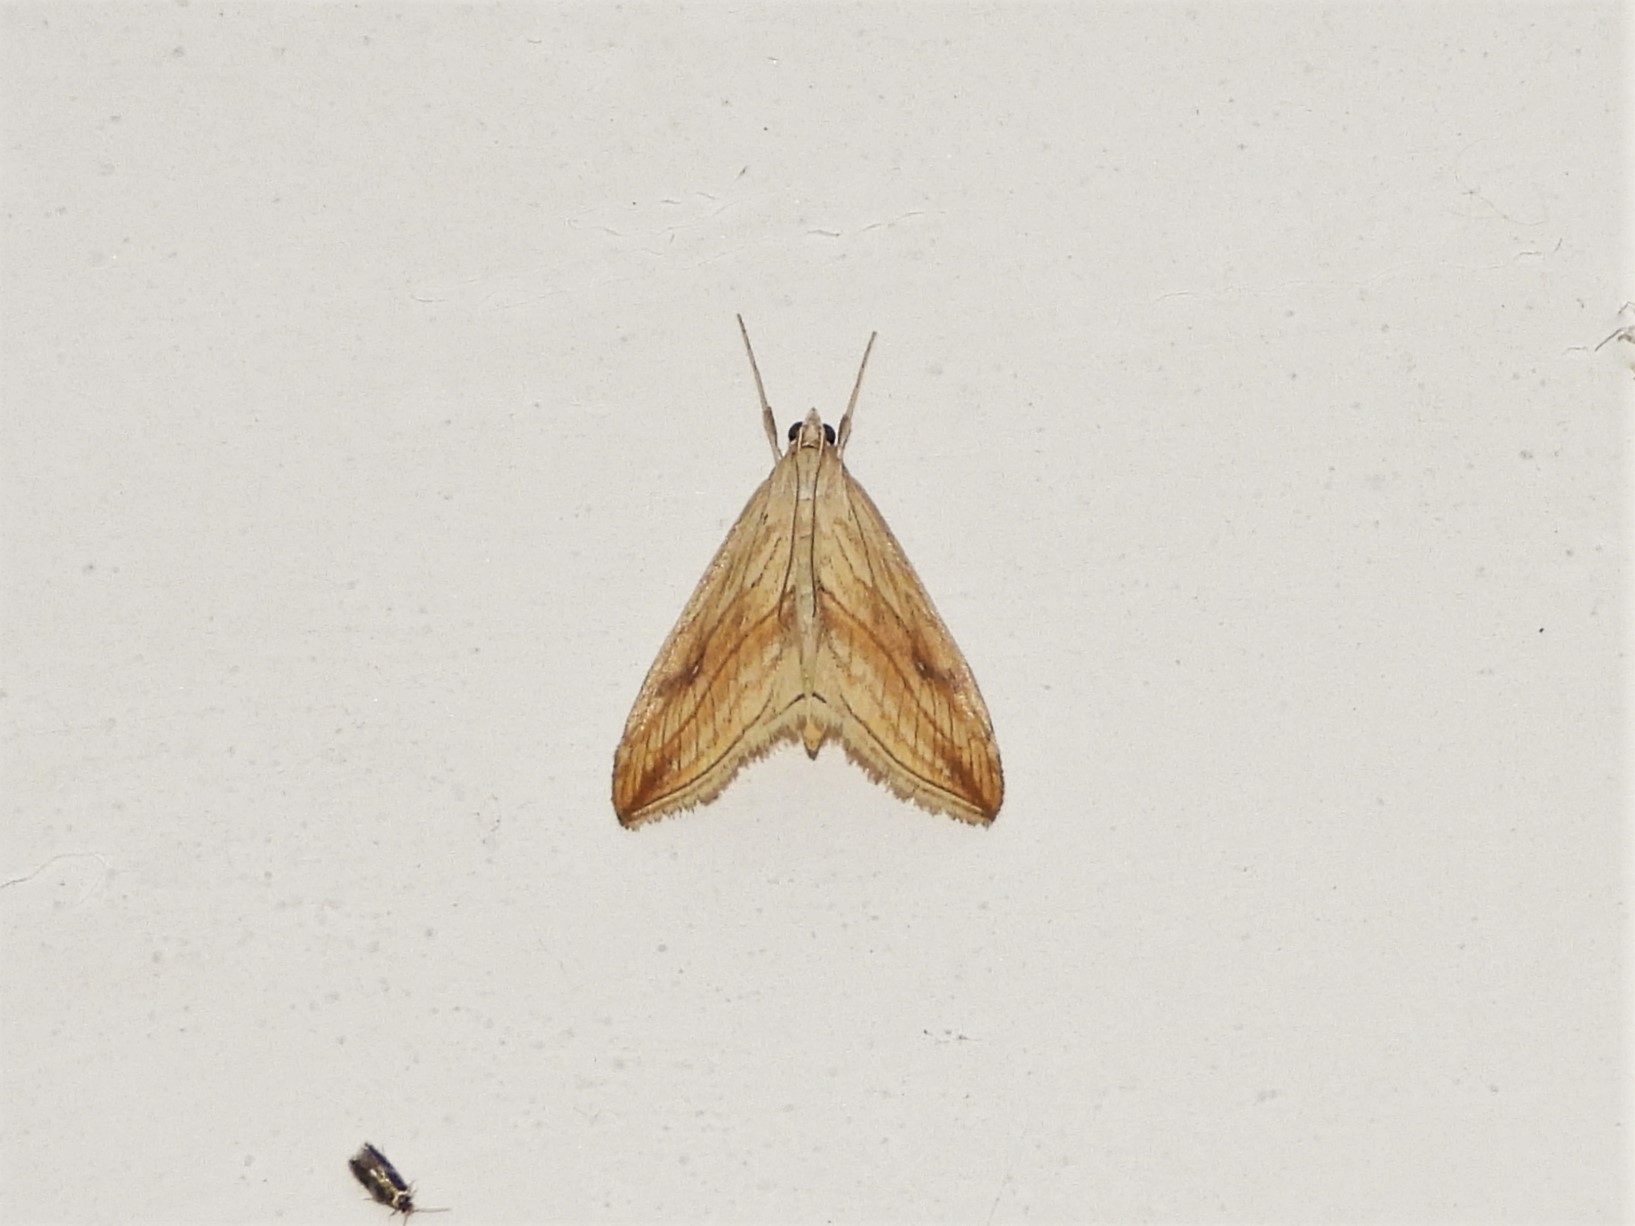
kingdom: Animalia
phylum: Arthropoda
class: Insecta
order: Lepidoptera
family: Crambidae
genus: Evergestis
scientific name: Evergestis forficalis
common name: Garden pebble
